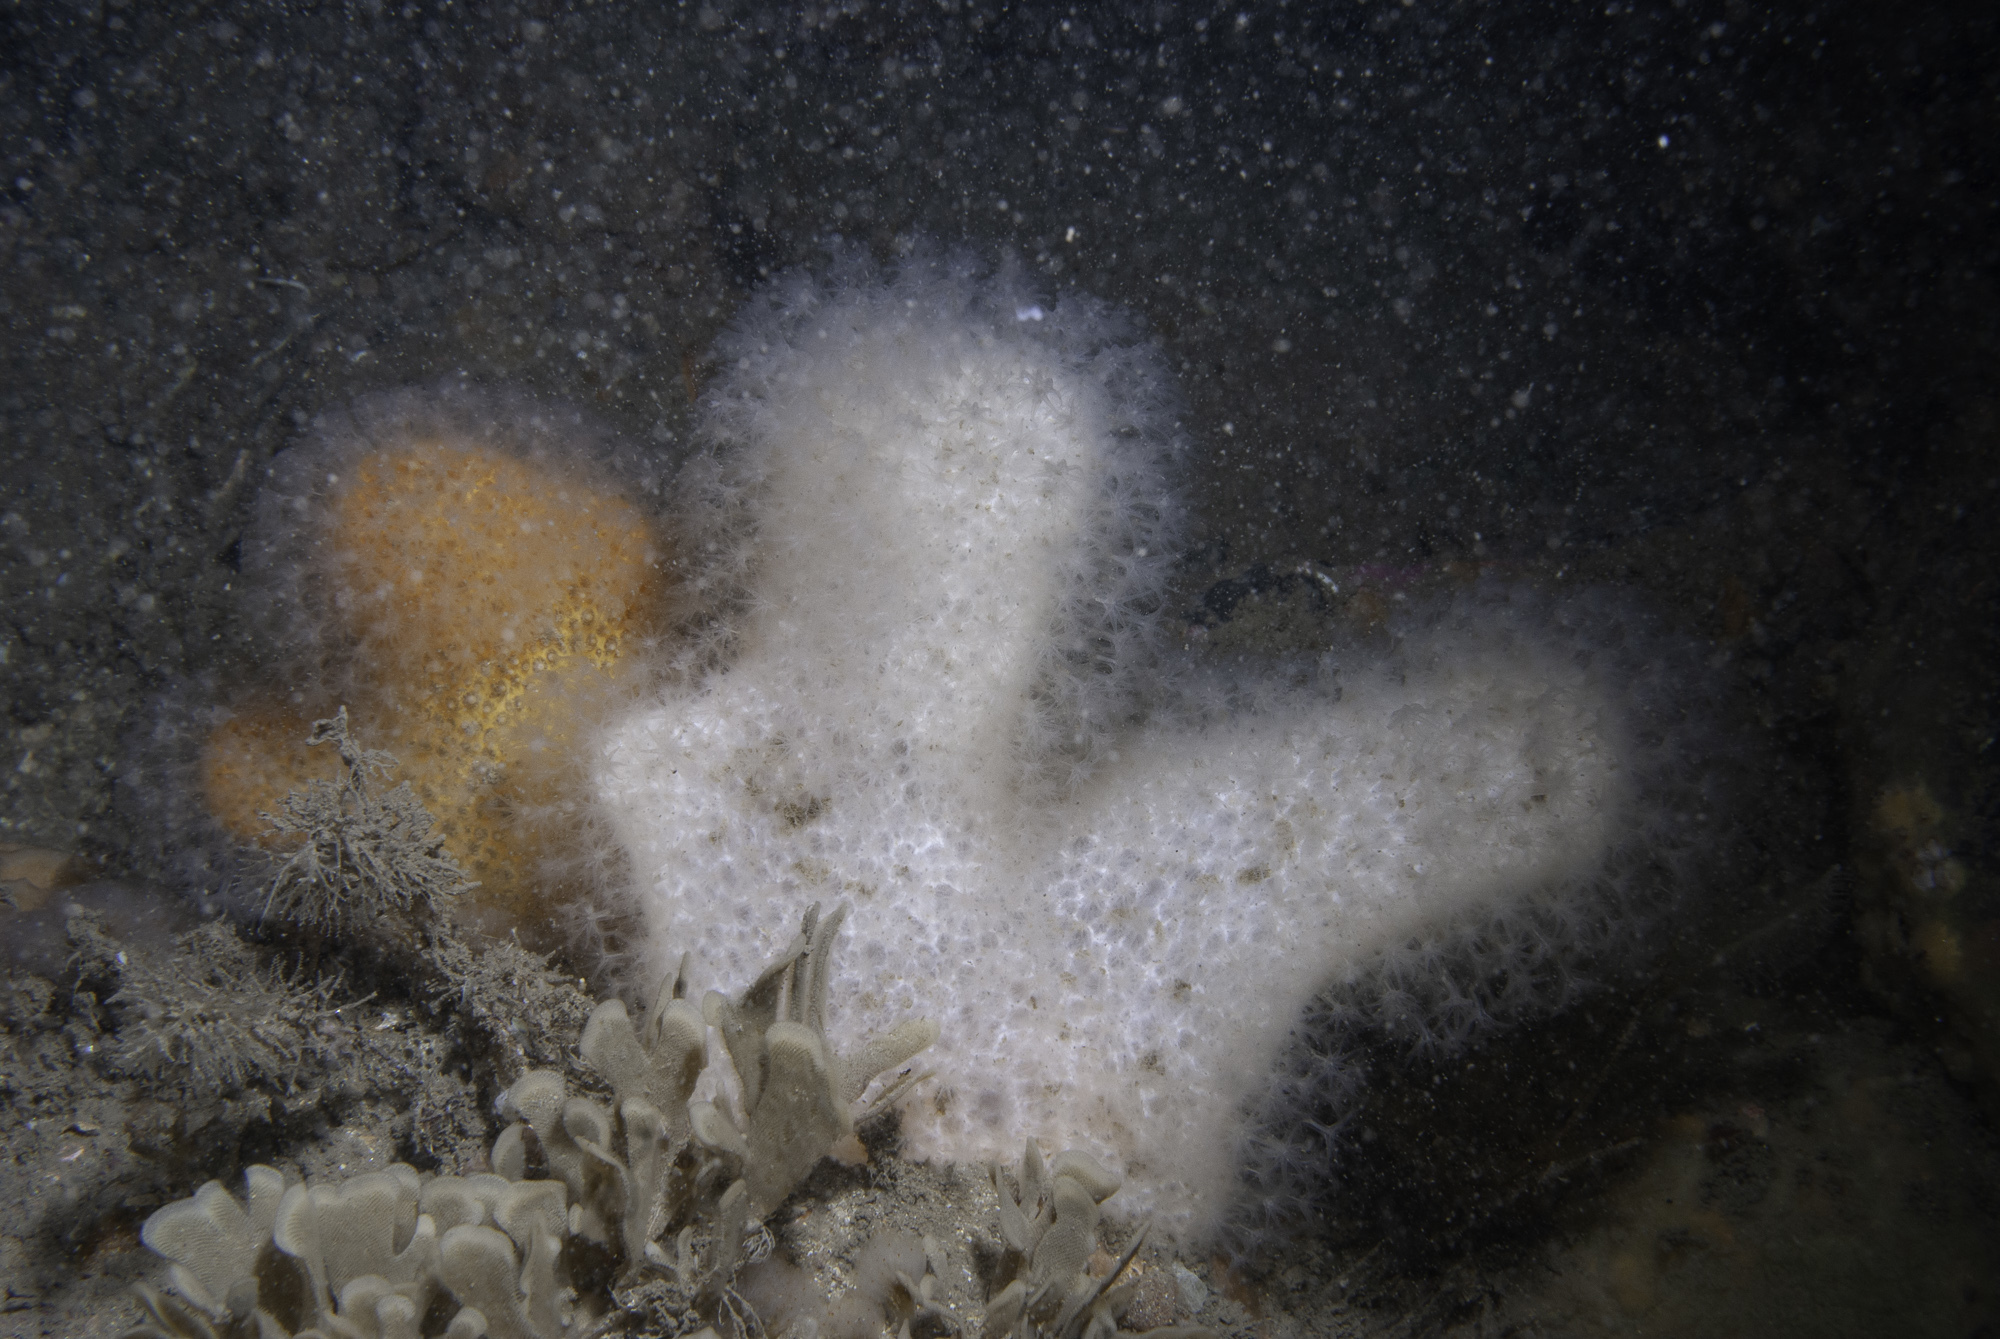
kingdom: Animalia
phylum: Cnidaria
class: Anthozoa
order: Malacalcyonacea
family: Alcyoniidae
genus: Alcyonium
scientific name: Alcyonium digitatum
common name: Dead man's fingers
